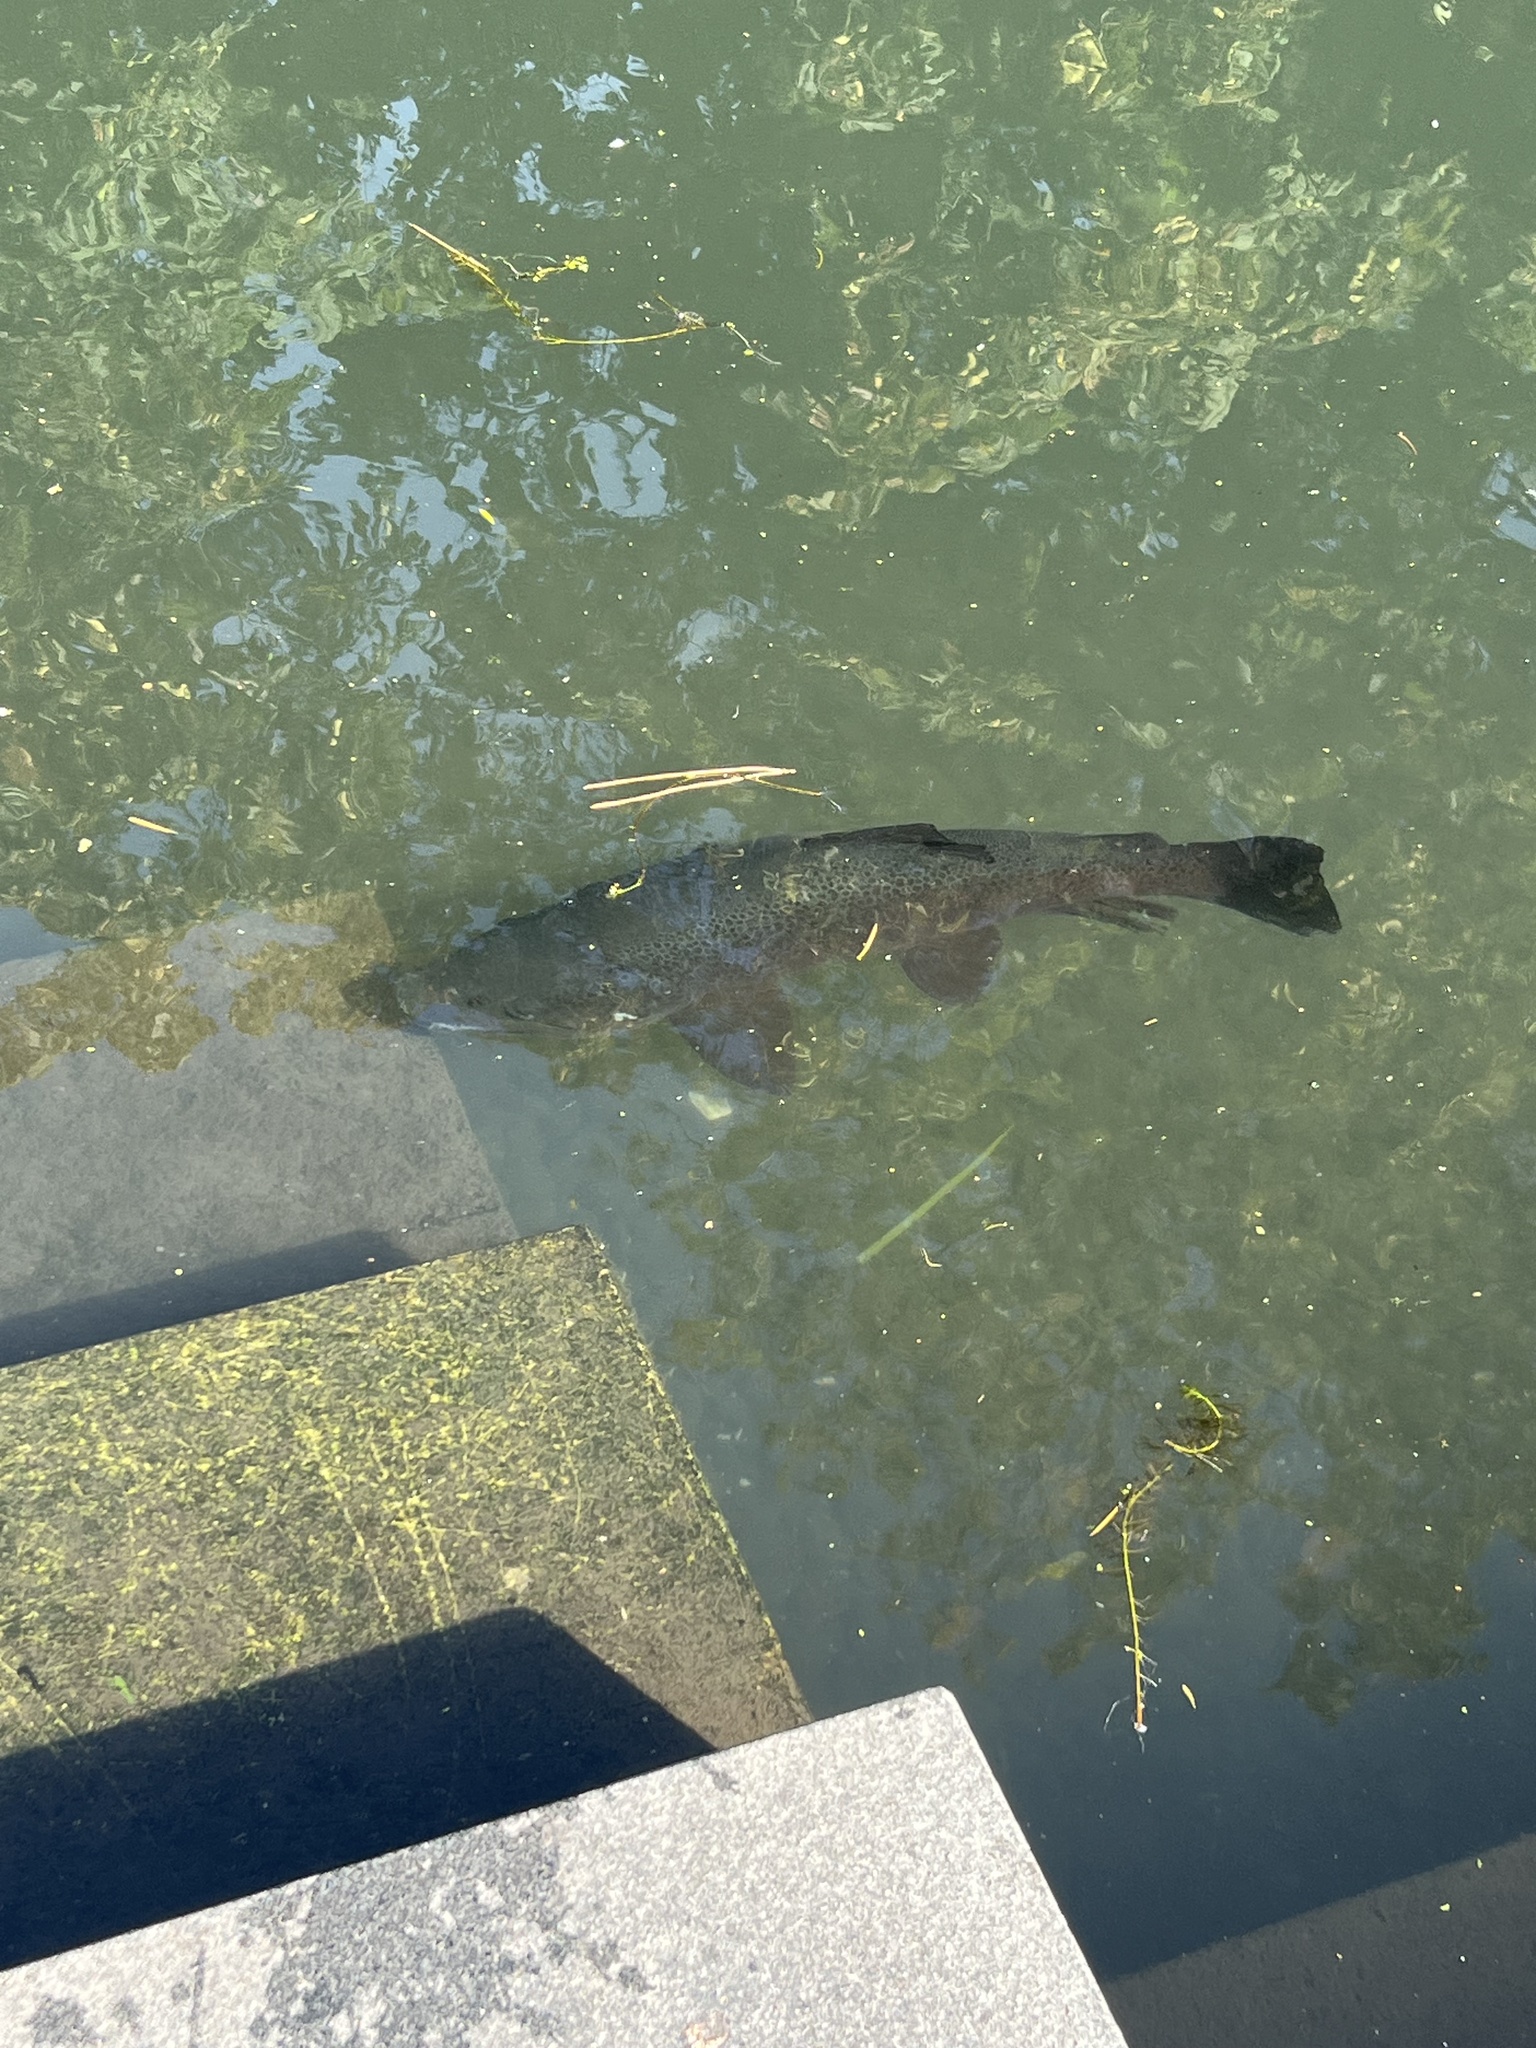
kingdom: Animalia
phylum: Chordata
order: Salmoniformes
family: Salmonidae
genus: Salmo
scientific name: Salmo trutta
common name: Brown trout
